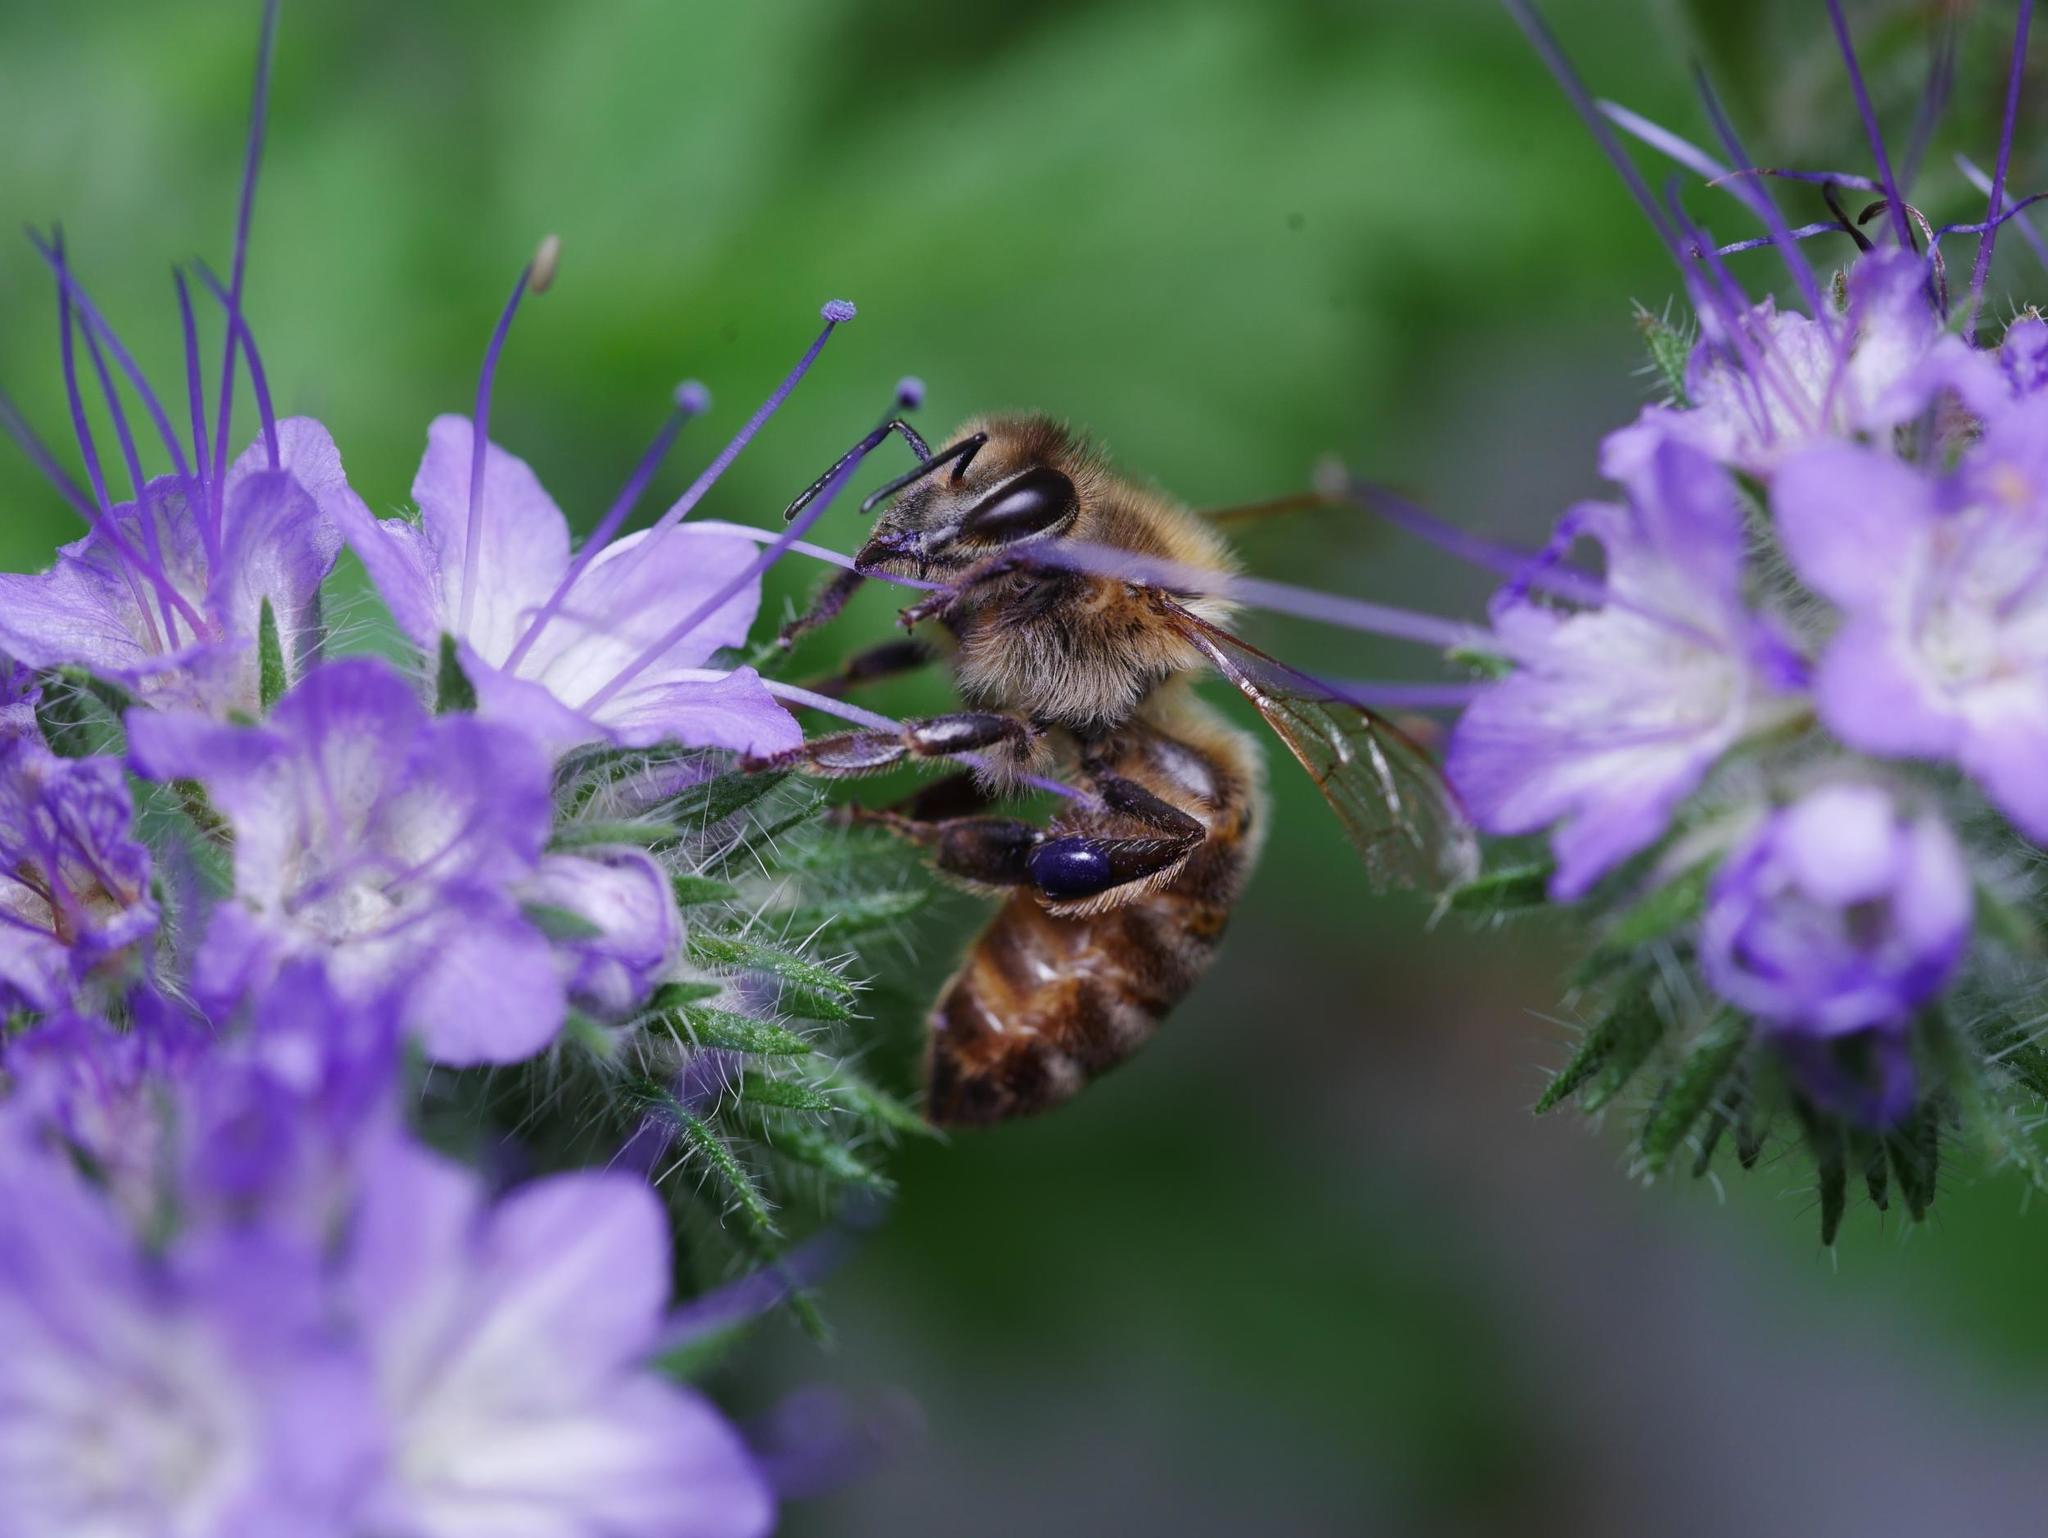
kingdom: Animalia
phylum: Arthropoda
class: Insecta
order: Hymenoptera
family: Apidae
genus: Apis
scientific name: Apis mellifera
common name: Honey bee
